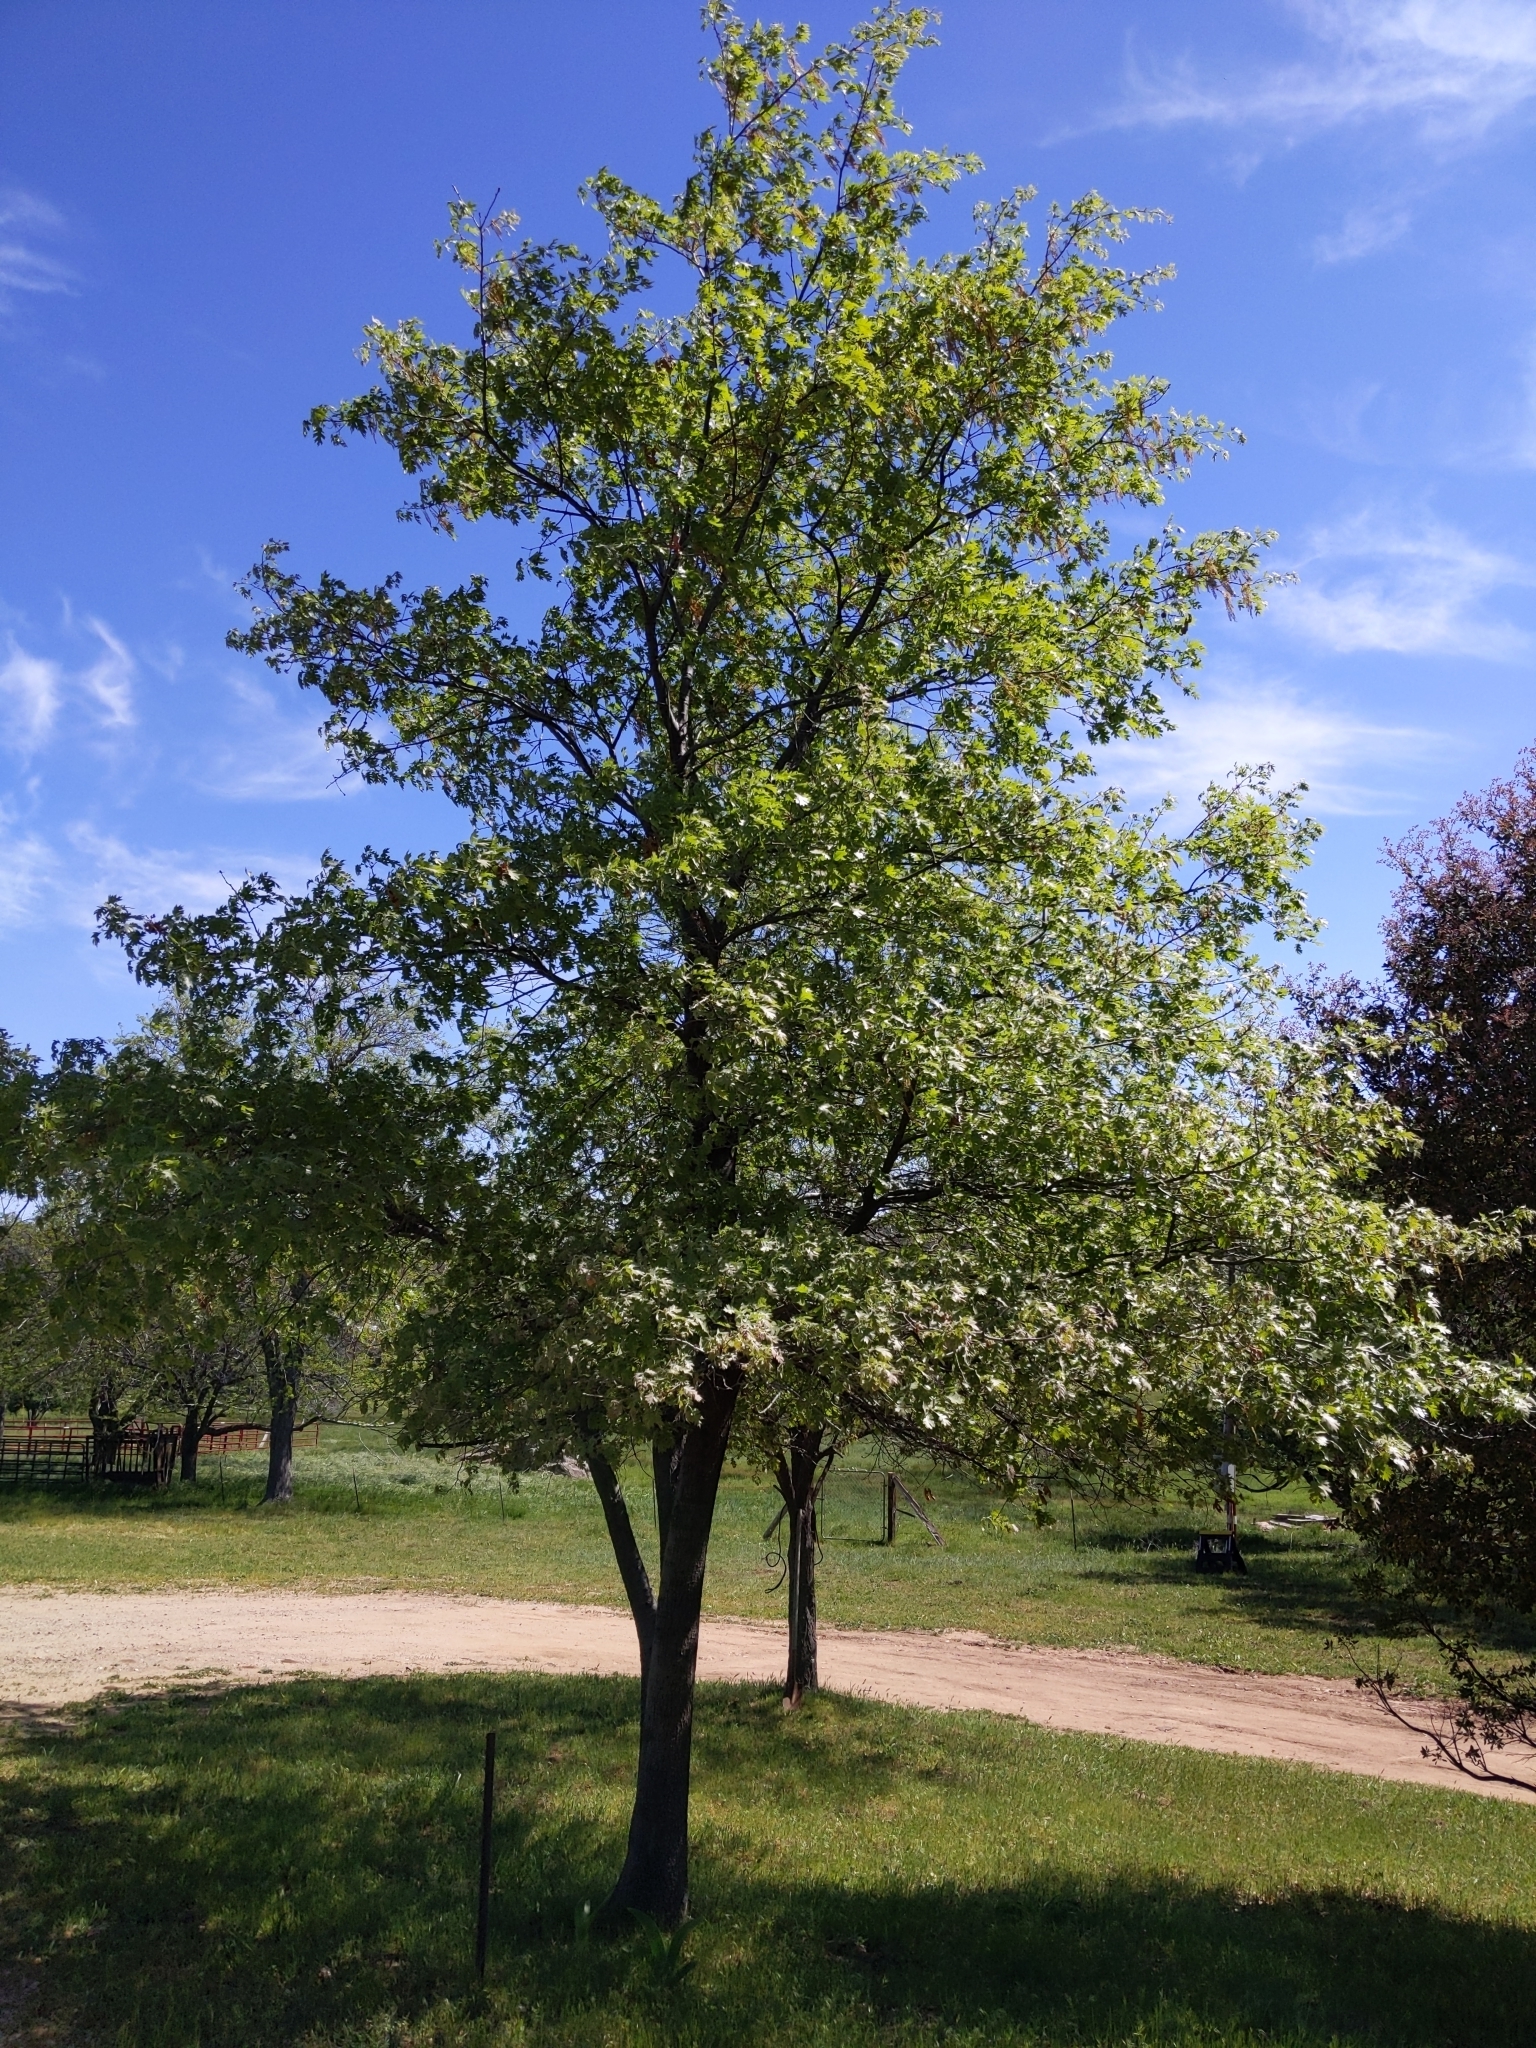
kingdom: Plantae
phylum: Tracheophyta
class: Magnoliopsida
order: Fagales
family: Fagaceae
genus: Quercus
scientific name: Quercus kelloggii
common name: California black oak
